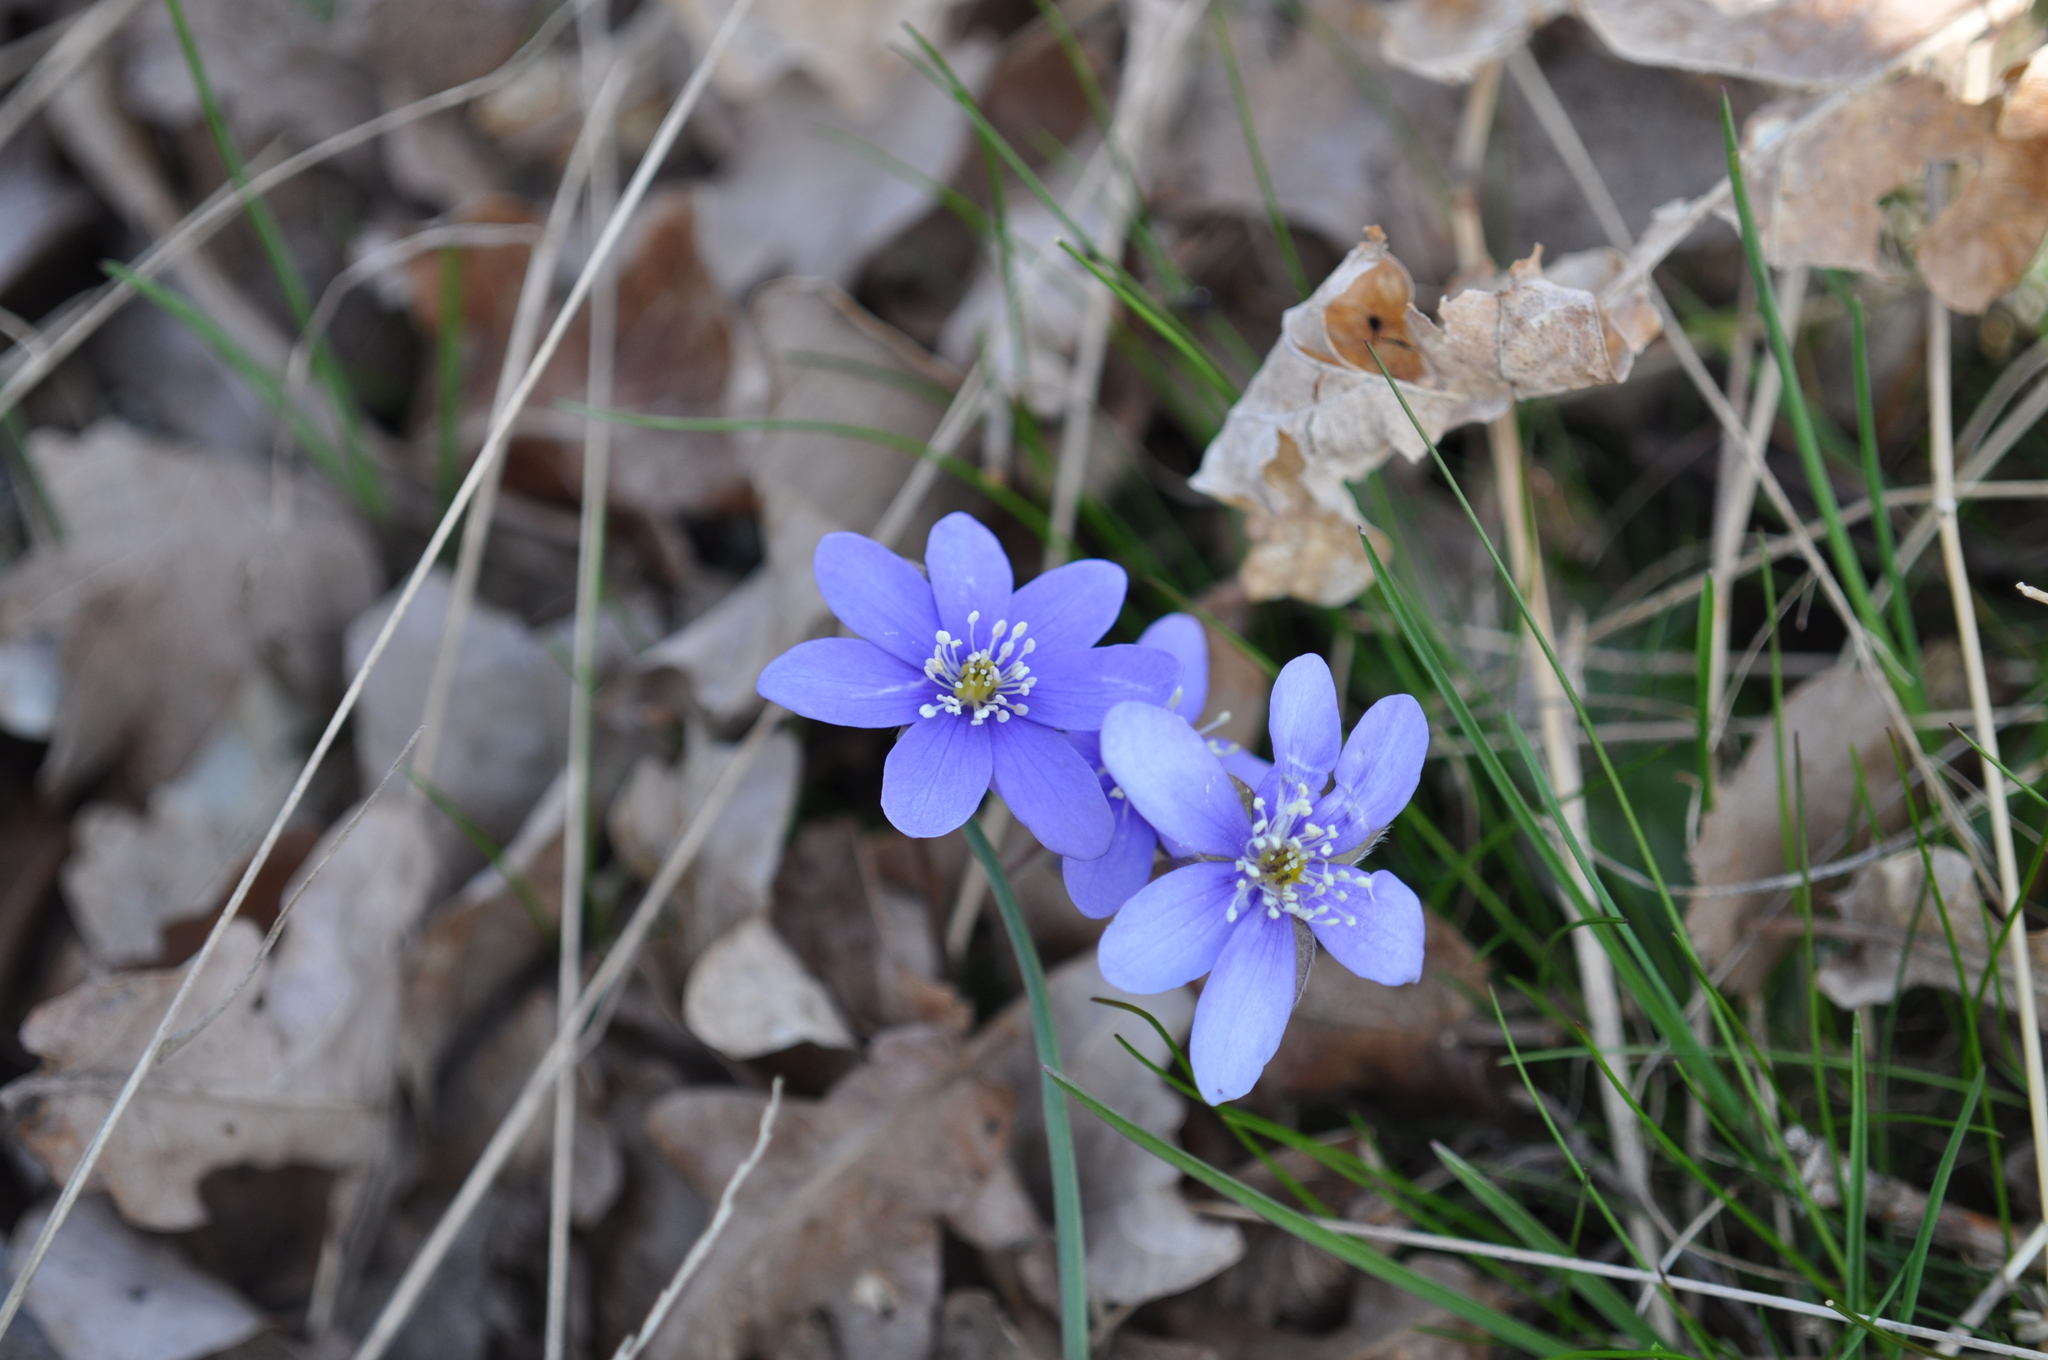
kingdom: Plantae
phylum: Tracheophyta
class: Magnoliopsida
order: Ranunculales
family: Ranunculaceae
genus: Hepatica
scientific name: Hepatica nobilis
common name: Liverleaf
